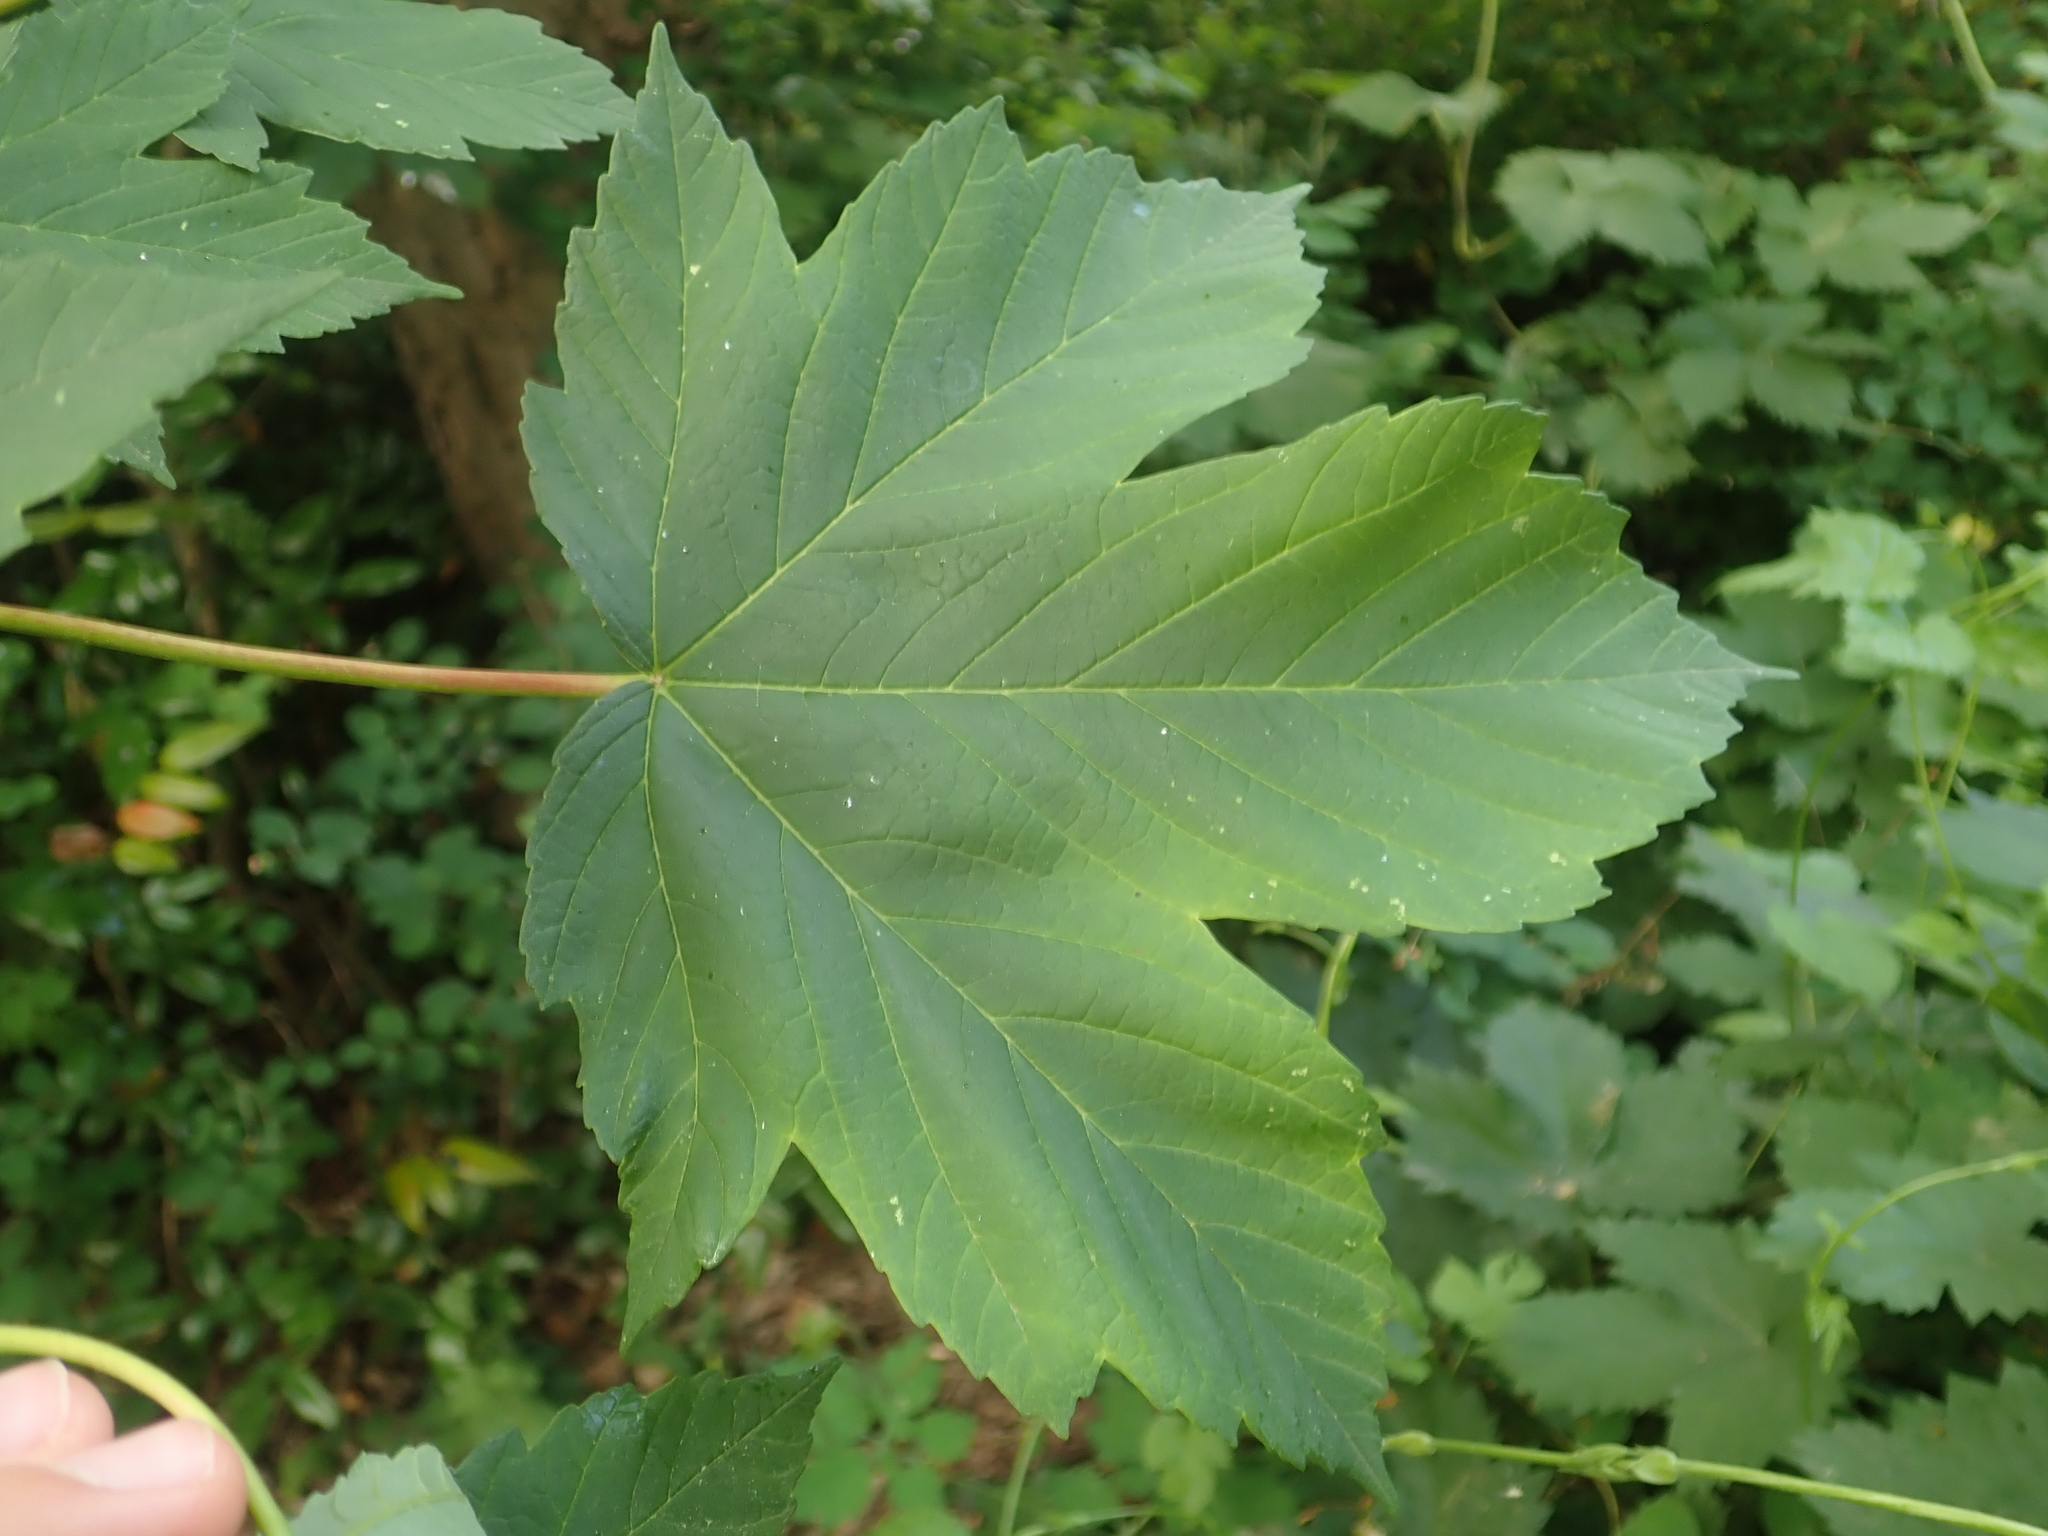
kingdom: Plantae
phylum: Tracheophyta
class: Magnoliopsida
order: Sapindales
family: Sapindaceae
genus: Acer
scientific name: Acer pseudoplatanus
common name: Sycamore
